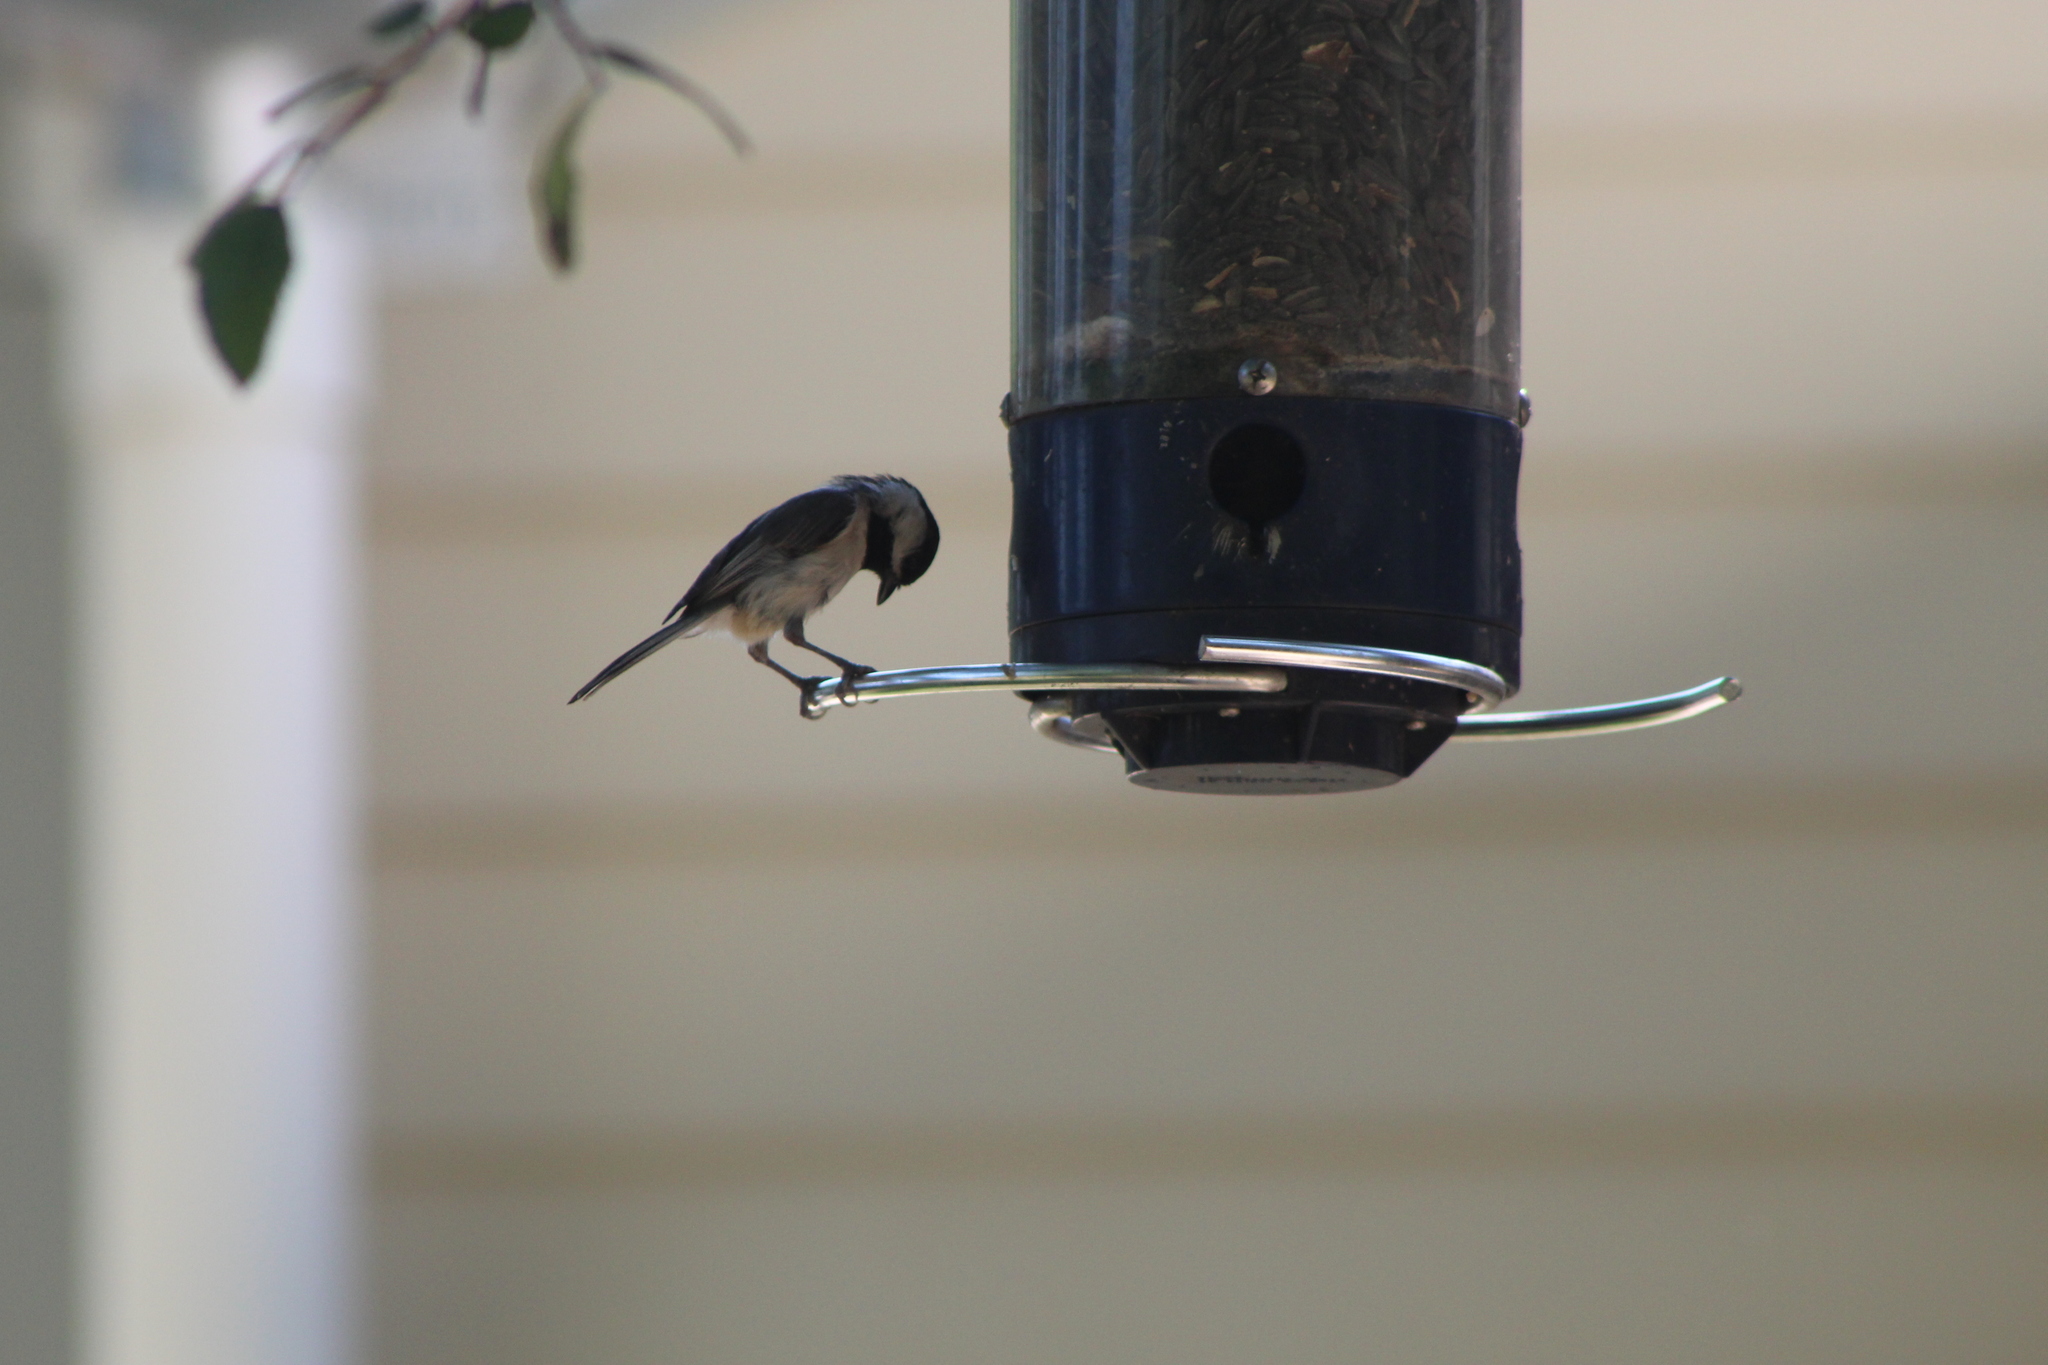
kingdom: Animalia
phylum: Chordata
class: Aves
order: Passeriformes
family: Paridae
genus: Poecile
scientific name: Poecile carolinensis
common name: Carolina chickadee
